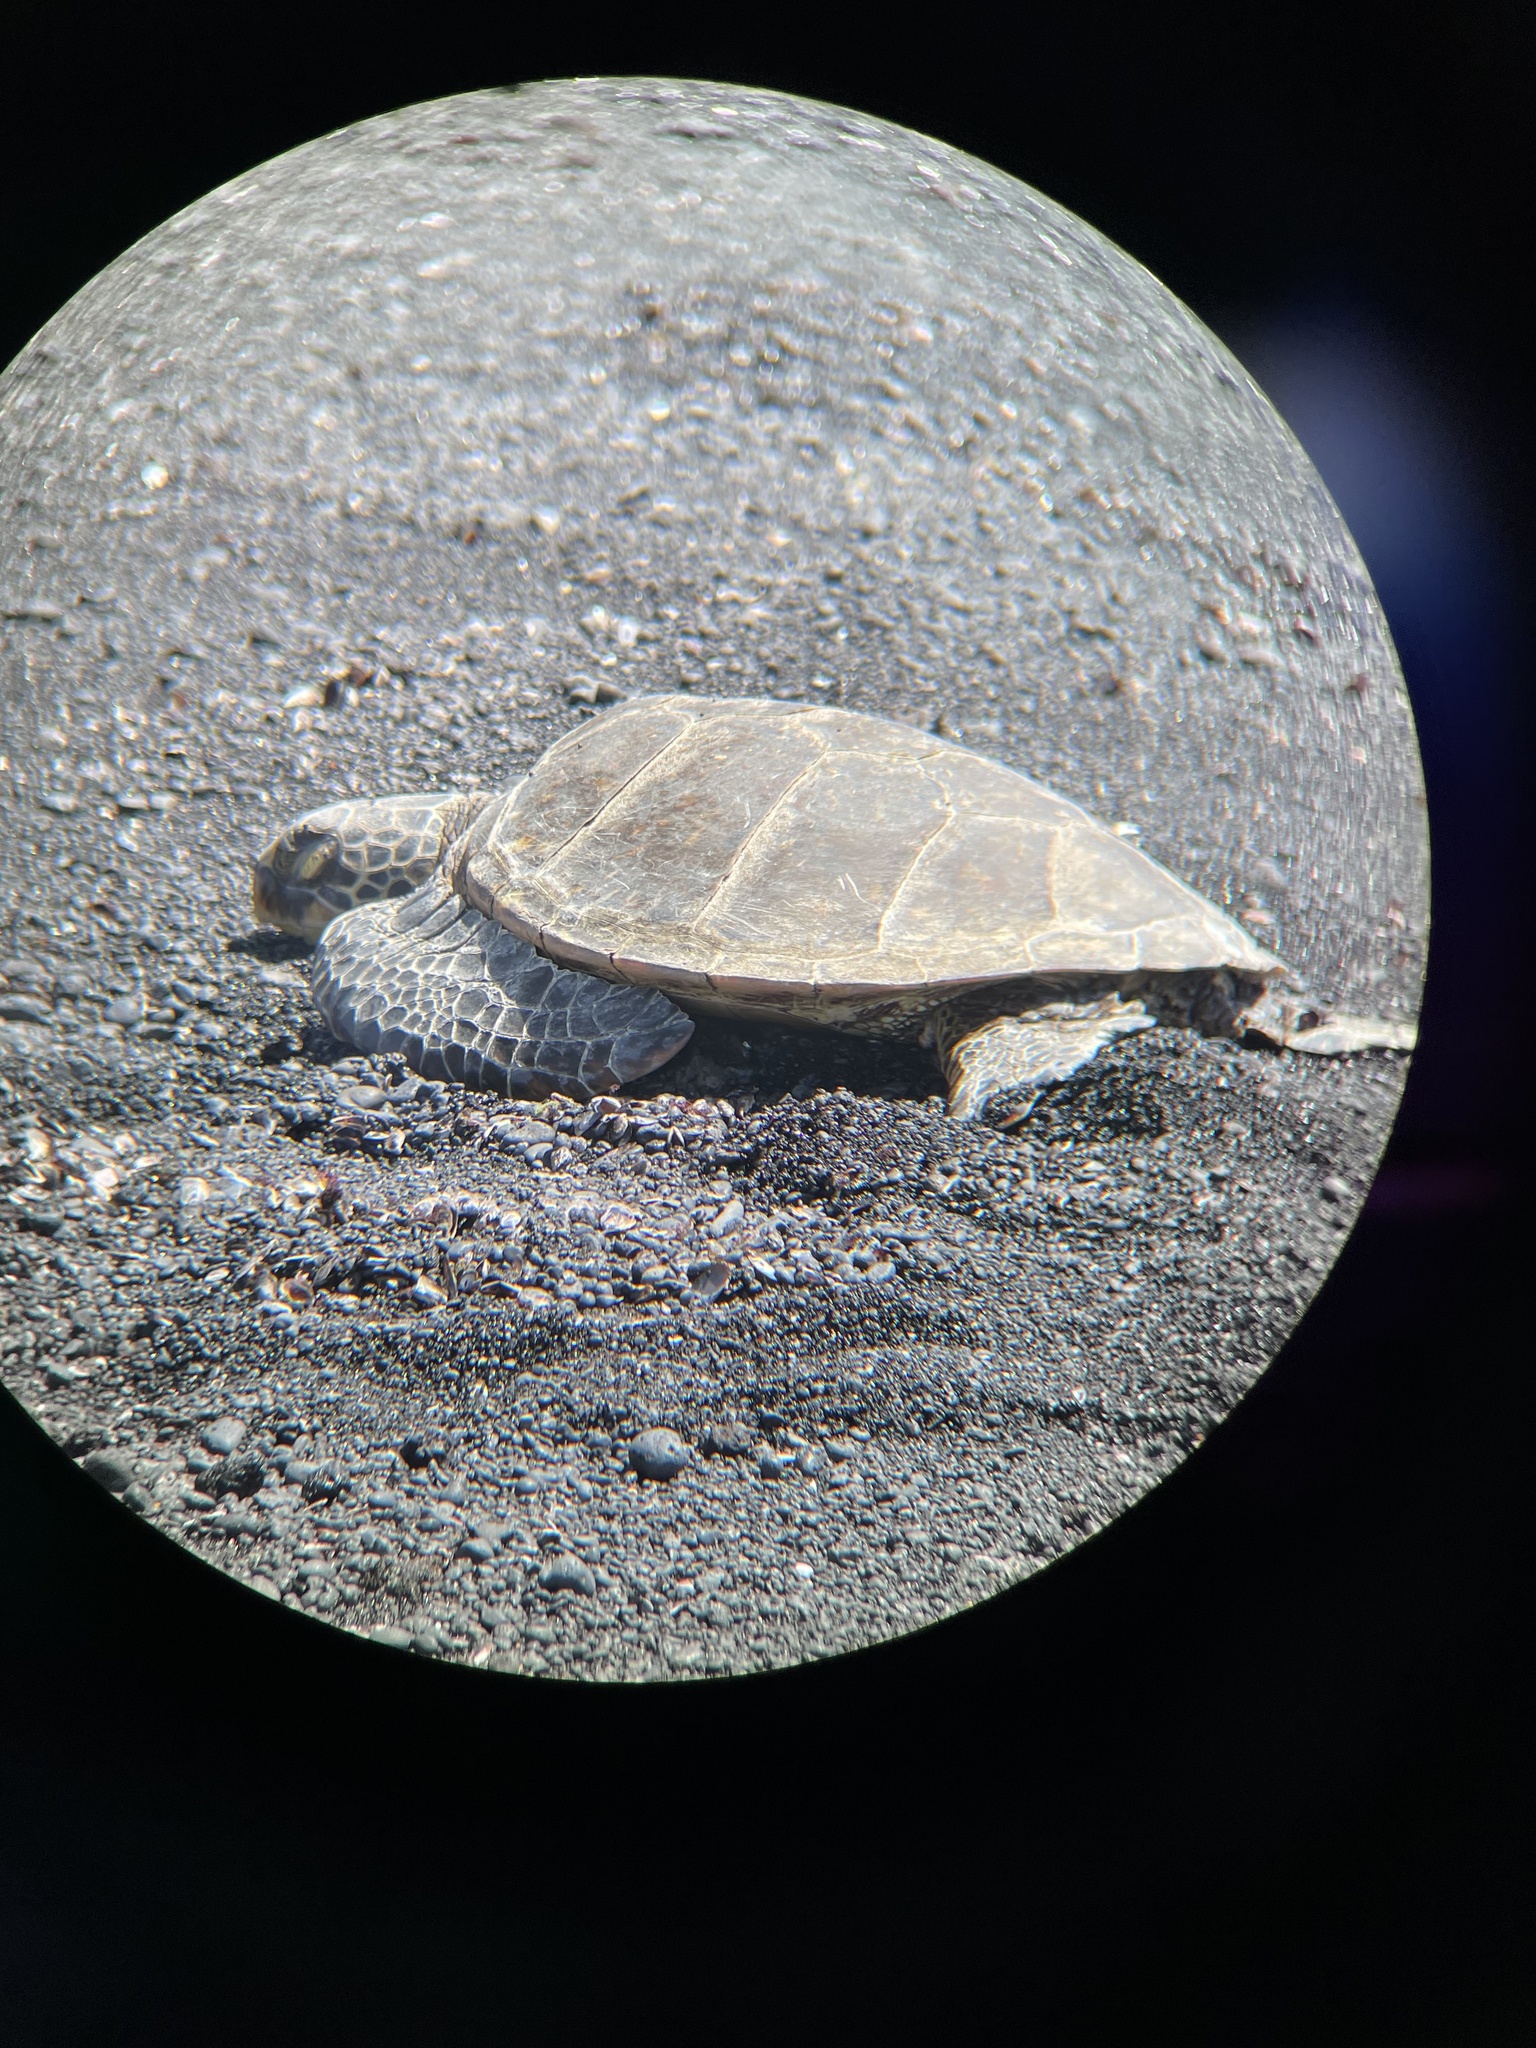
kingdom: Animalia
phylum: Chordata
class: Testudines
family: Cheloniidae
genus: Chelonia
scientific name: Chelonia mydas
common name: Green turtle
